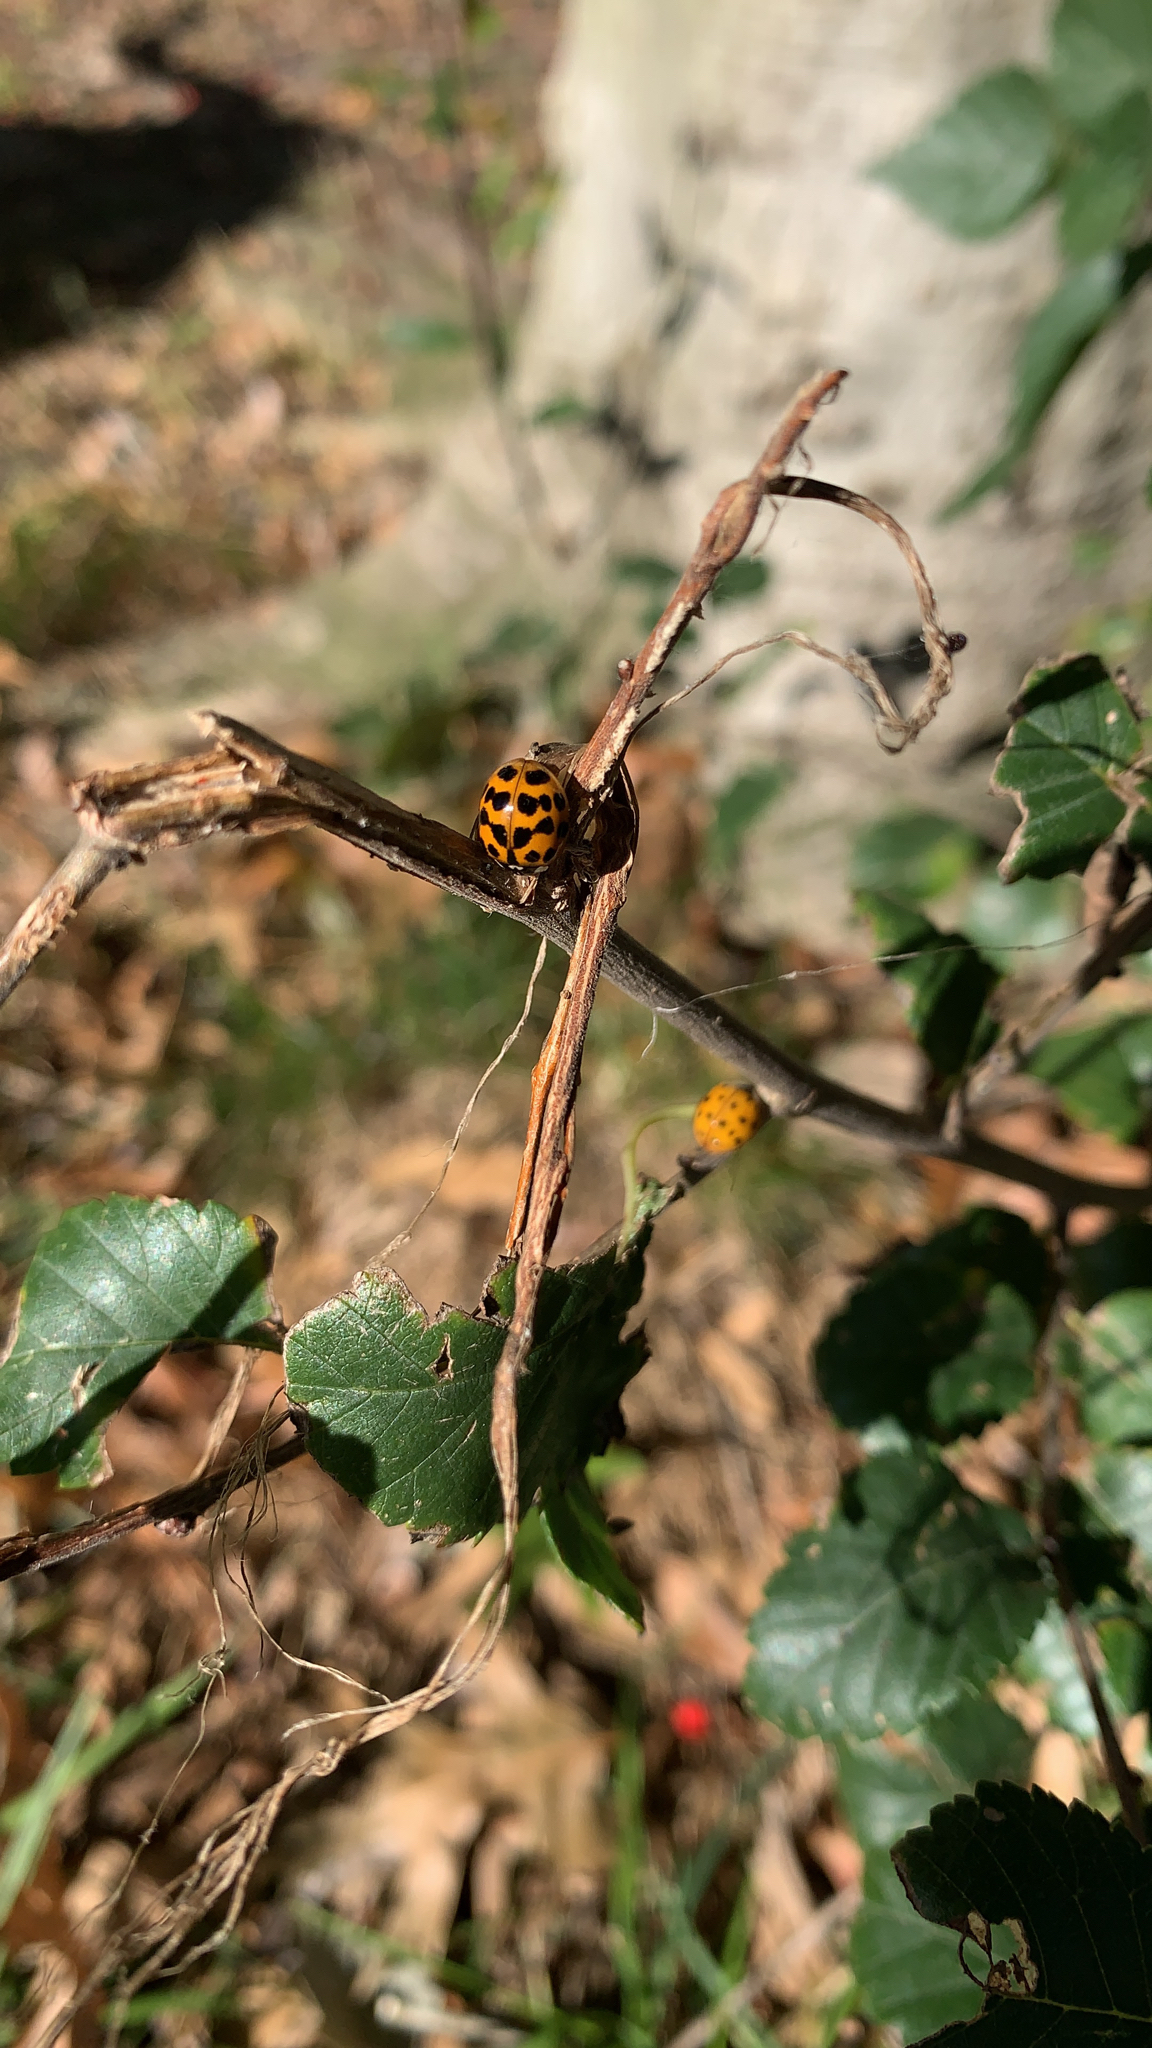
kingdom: Animalia
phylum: Arthropoda
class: Insecta
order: Coleoptera
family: Coccinellidae
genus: Harmonia
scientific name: Harmonia axyridis
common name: Harlequin ladybird
